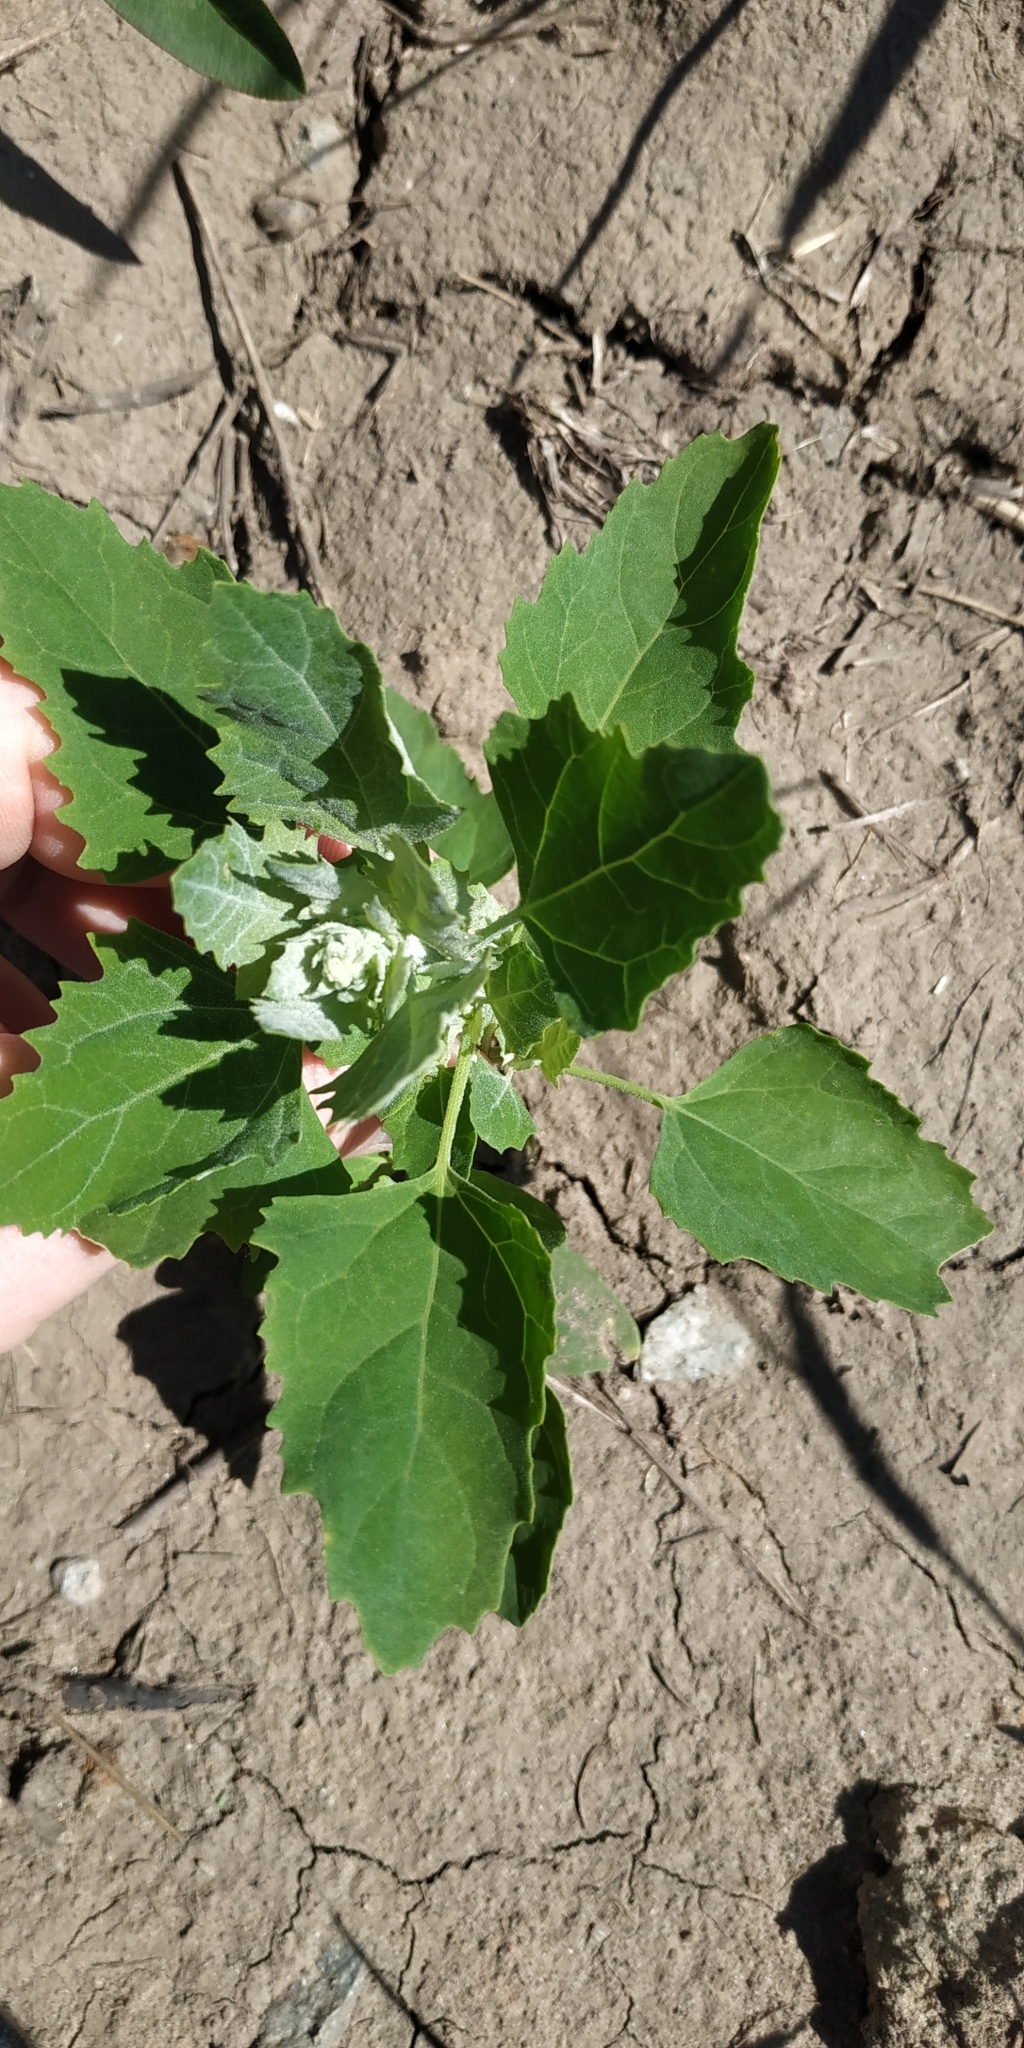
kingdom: Plantae
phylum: Tracheophyta
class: Magnoliopsida
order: Caryophyllales
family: Amaranthaceae
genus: Chenopodium
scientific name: Chenopodium album
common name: Fat-hen
